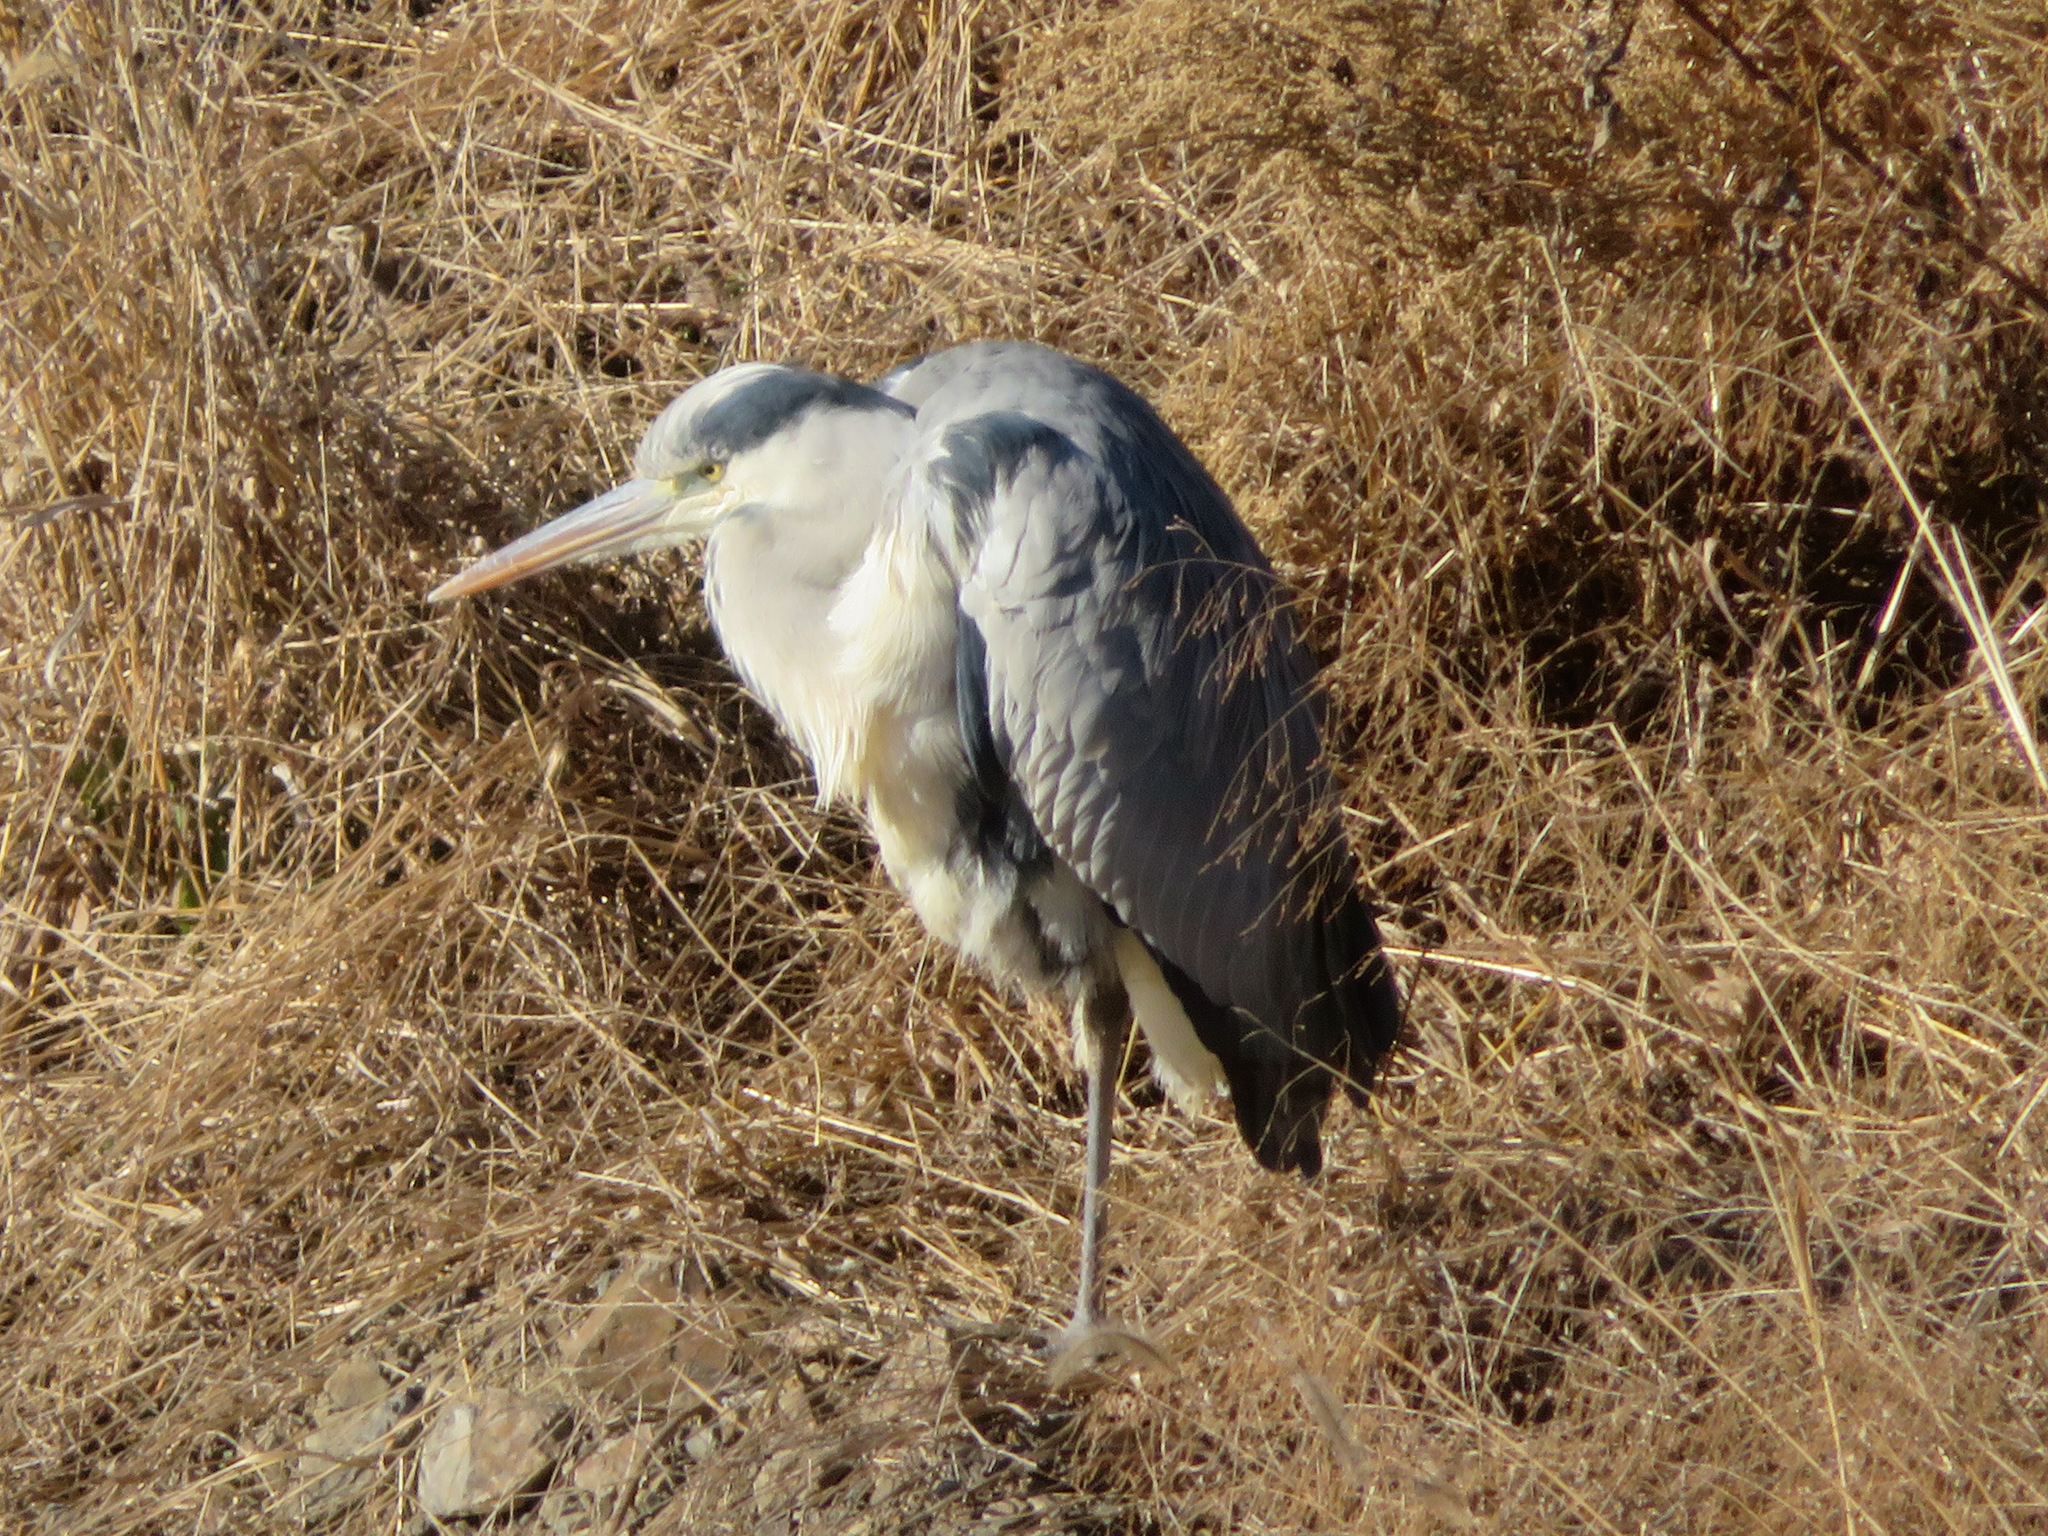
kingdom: Animalia
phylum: Chordata
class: Aves
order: Pelecaniformes
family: Ardeidae
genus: Ardea
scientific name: Ardea cinerea
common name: Grey heron
